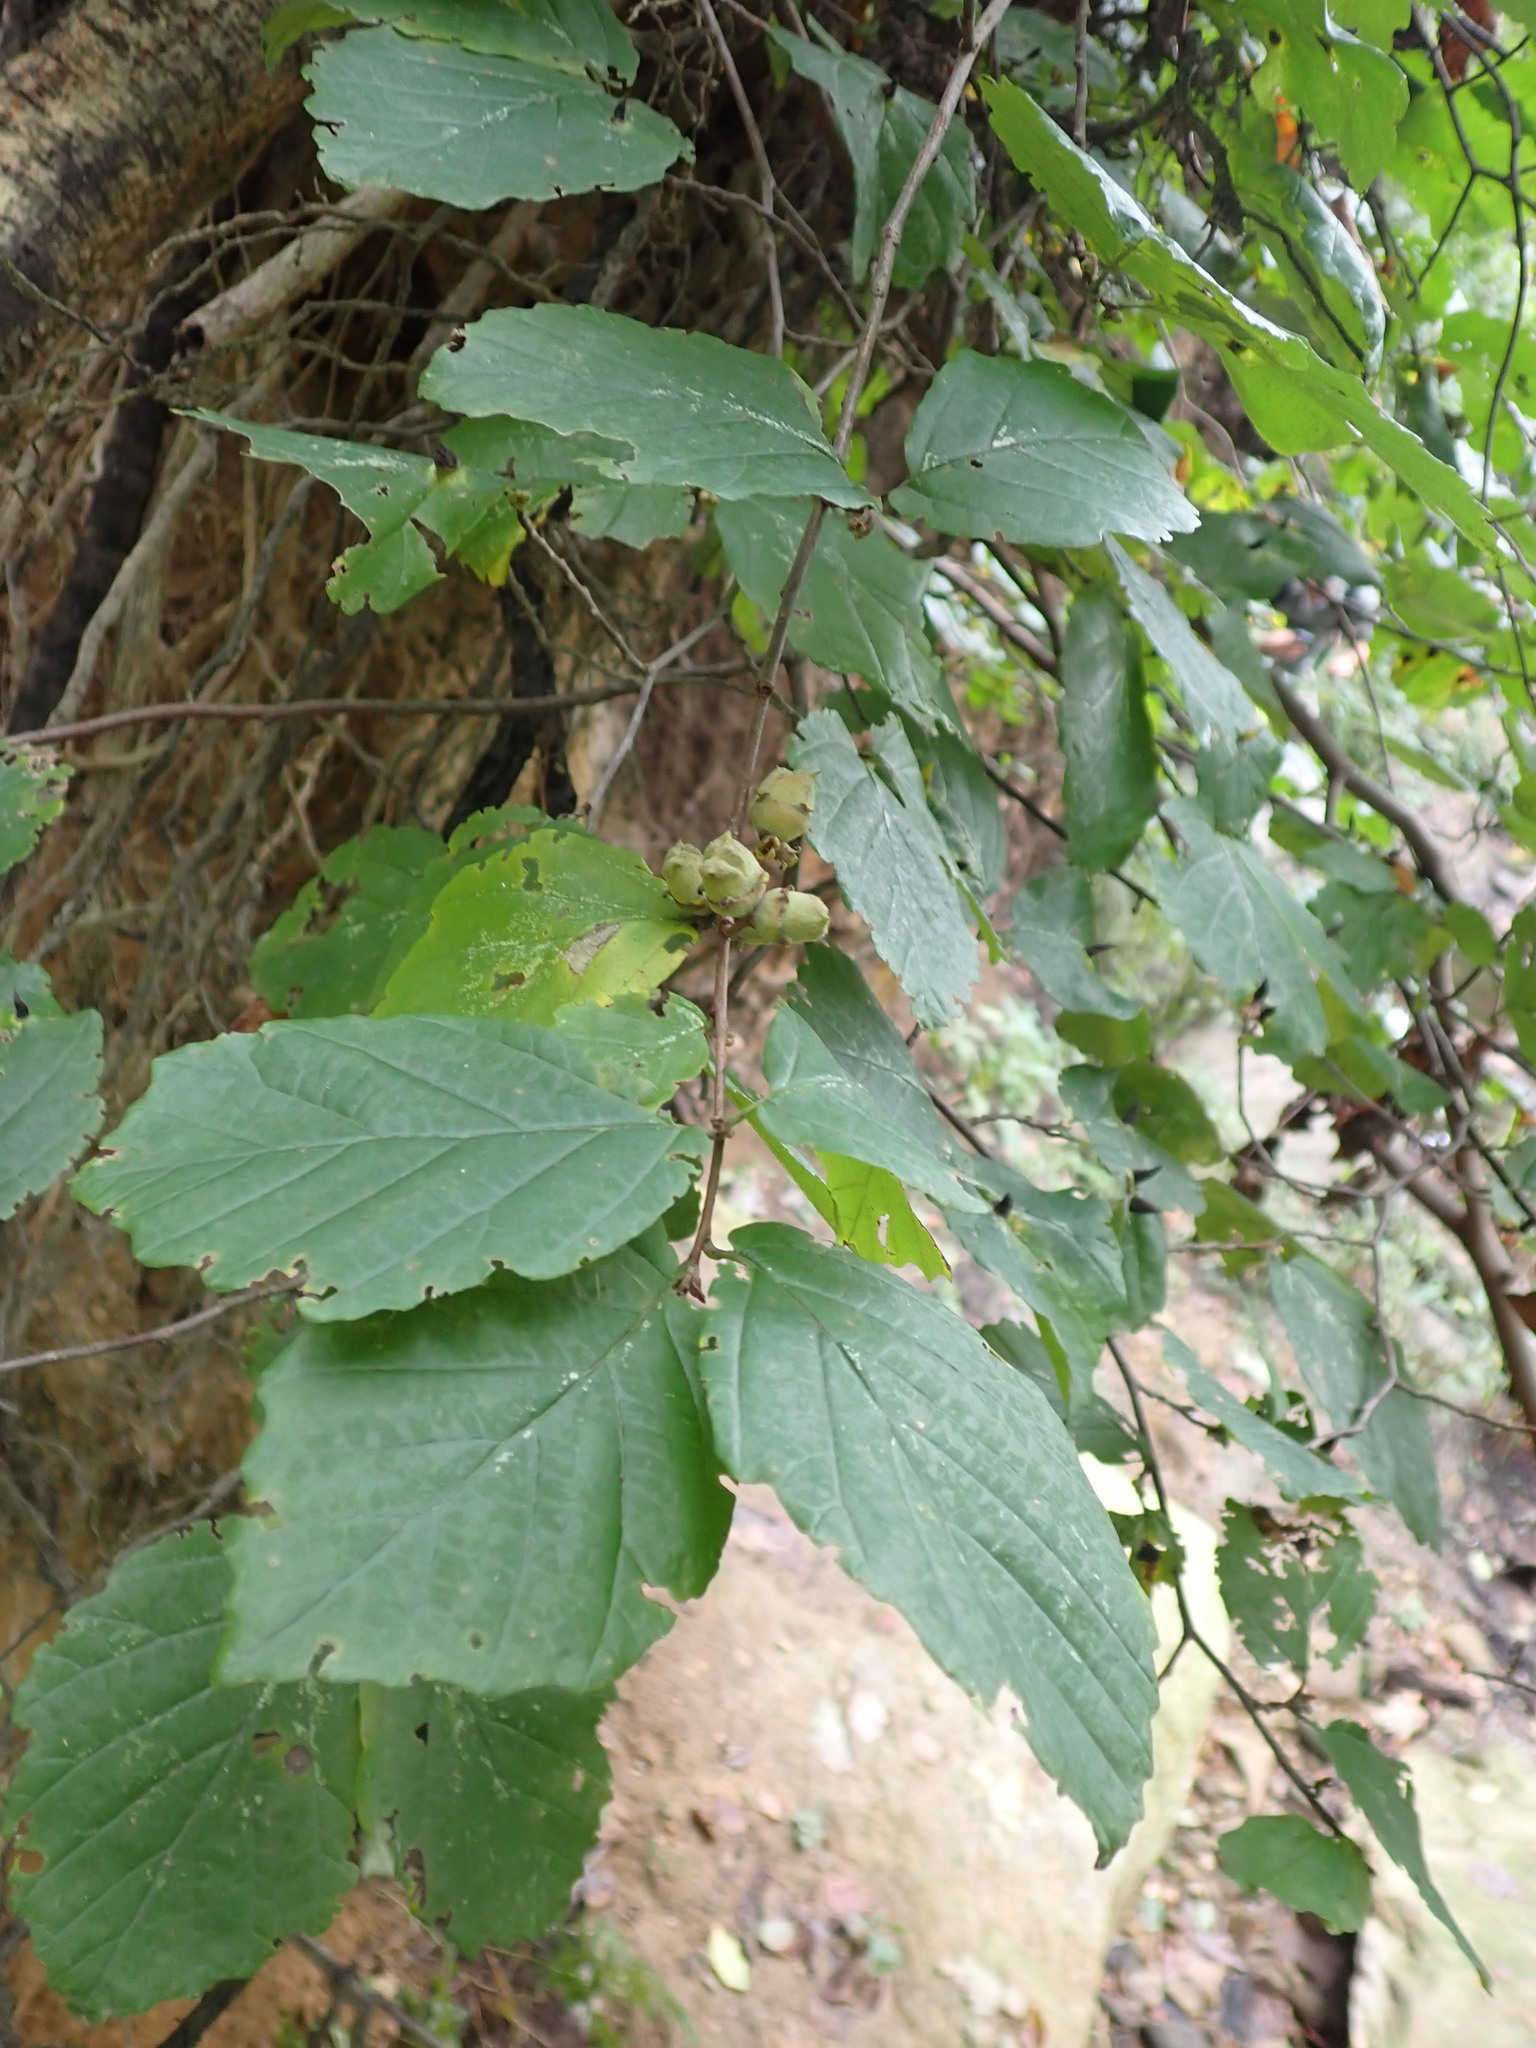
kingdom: Plantae
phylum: Tracheophyta
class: Magnoliopsida
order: Saxifragales
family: Hamamelidaceae
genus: Hamamelis
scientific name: Hamamelis virginiana
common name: Witch-hazel
